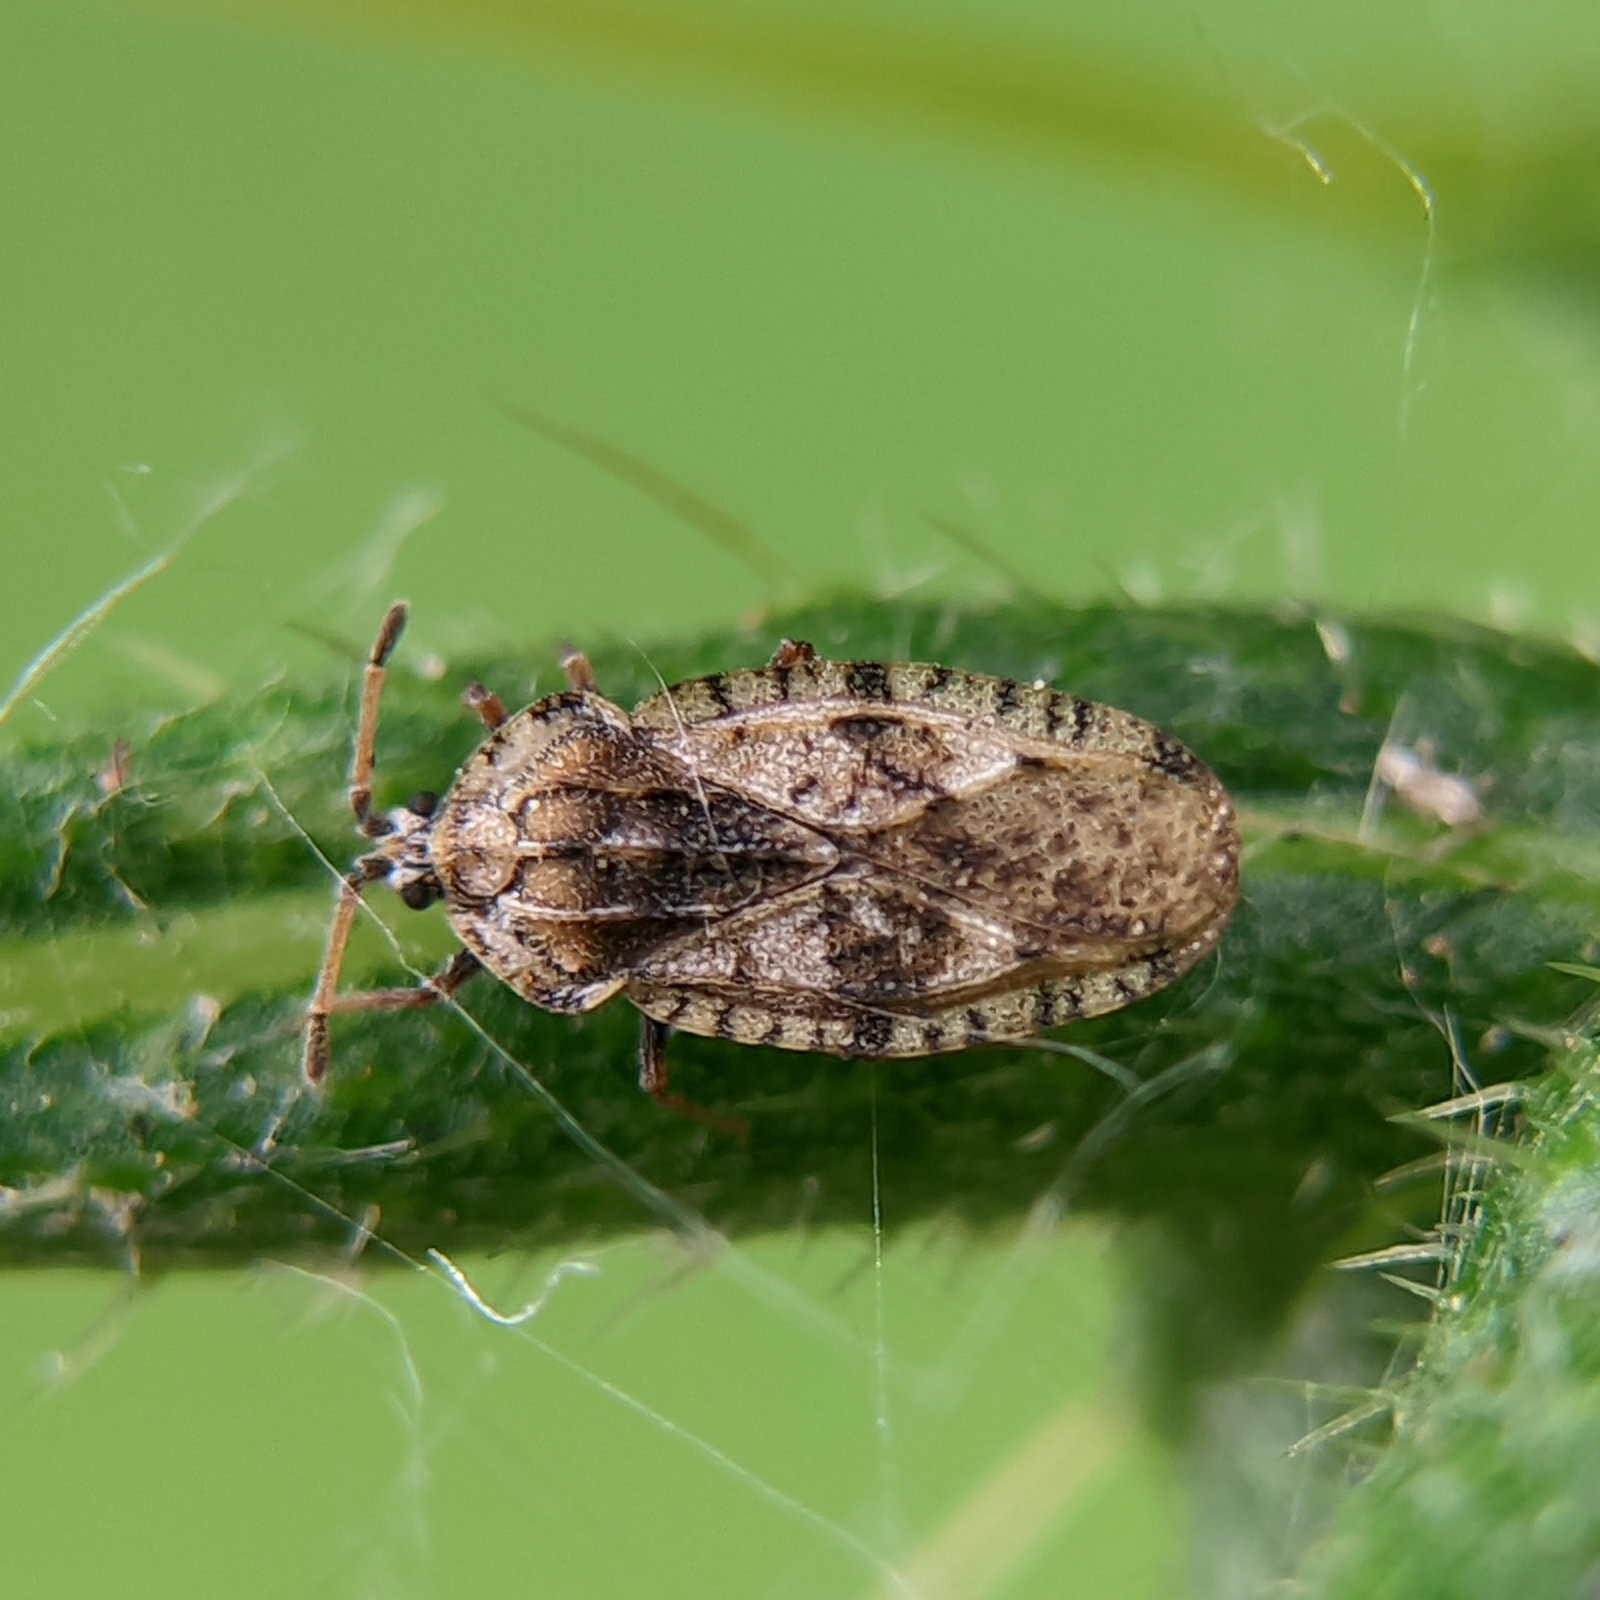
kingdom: Animalia
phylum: Arthropoda
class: Insecta
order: Hemiptera
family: Tingidae
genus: Tingis
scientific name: Tingis cardui
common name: Spear thistle lacebug
